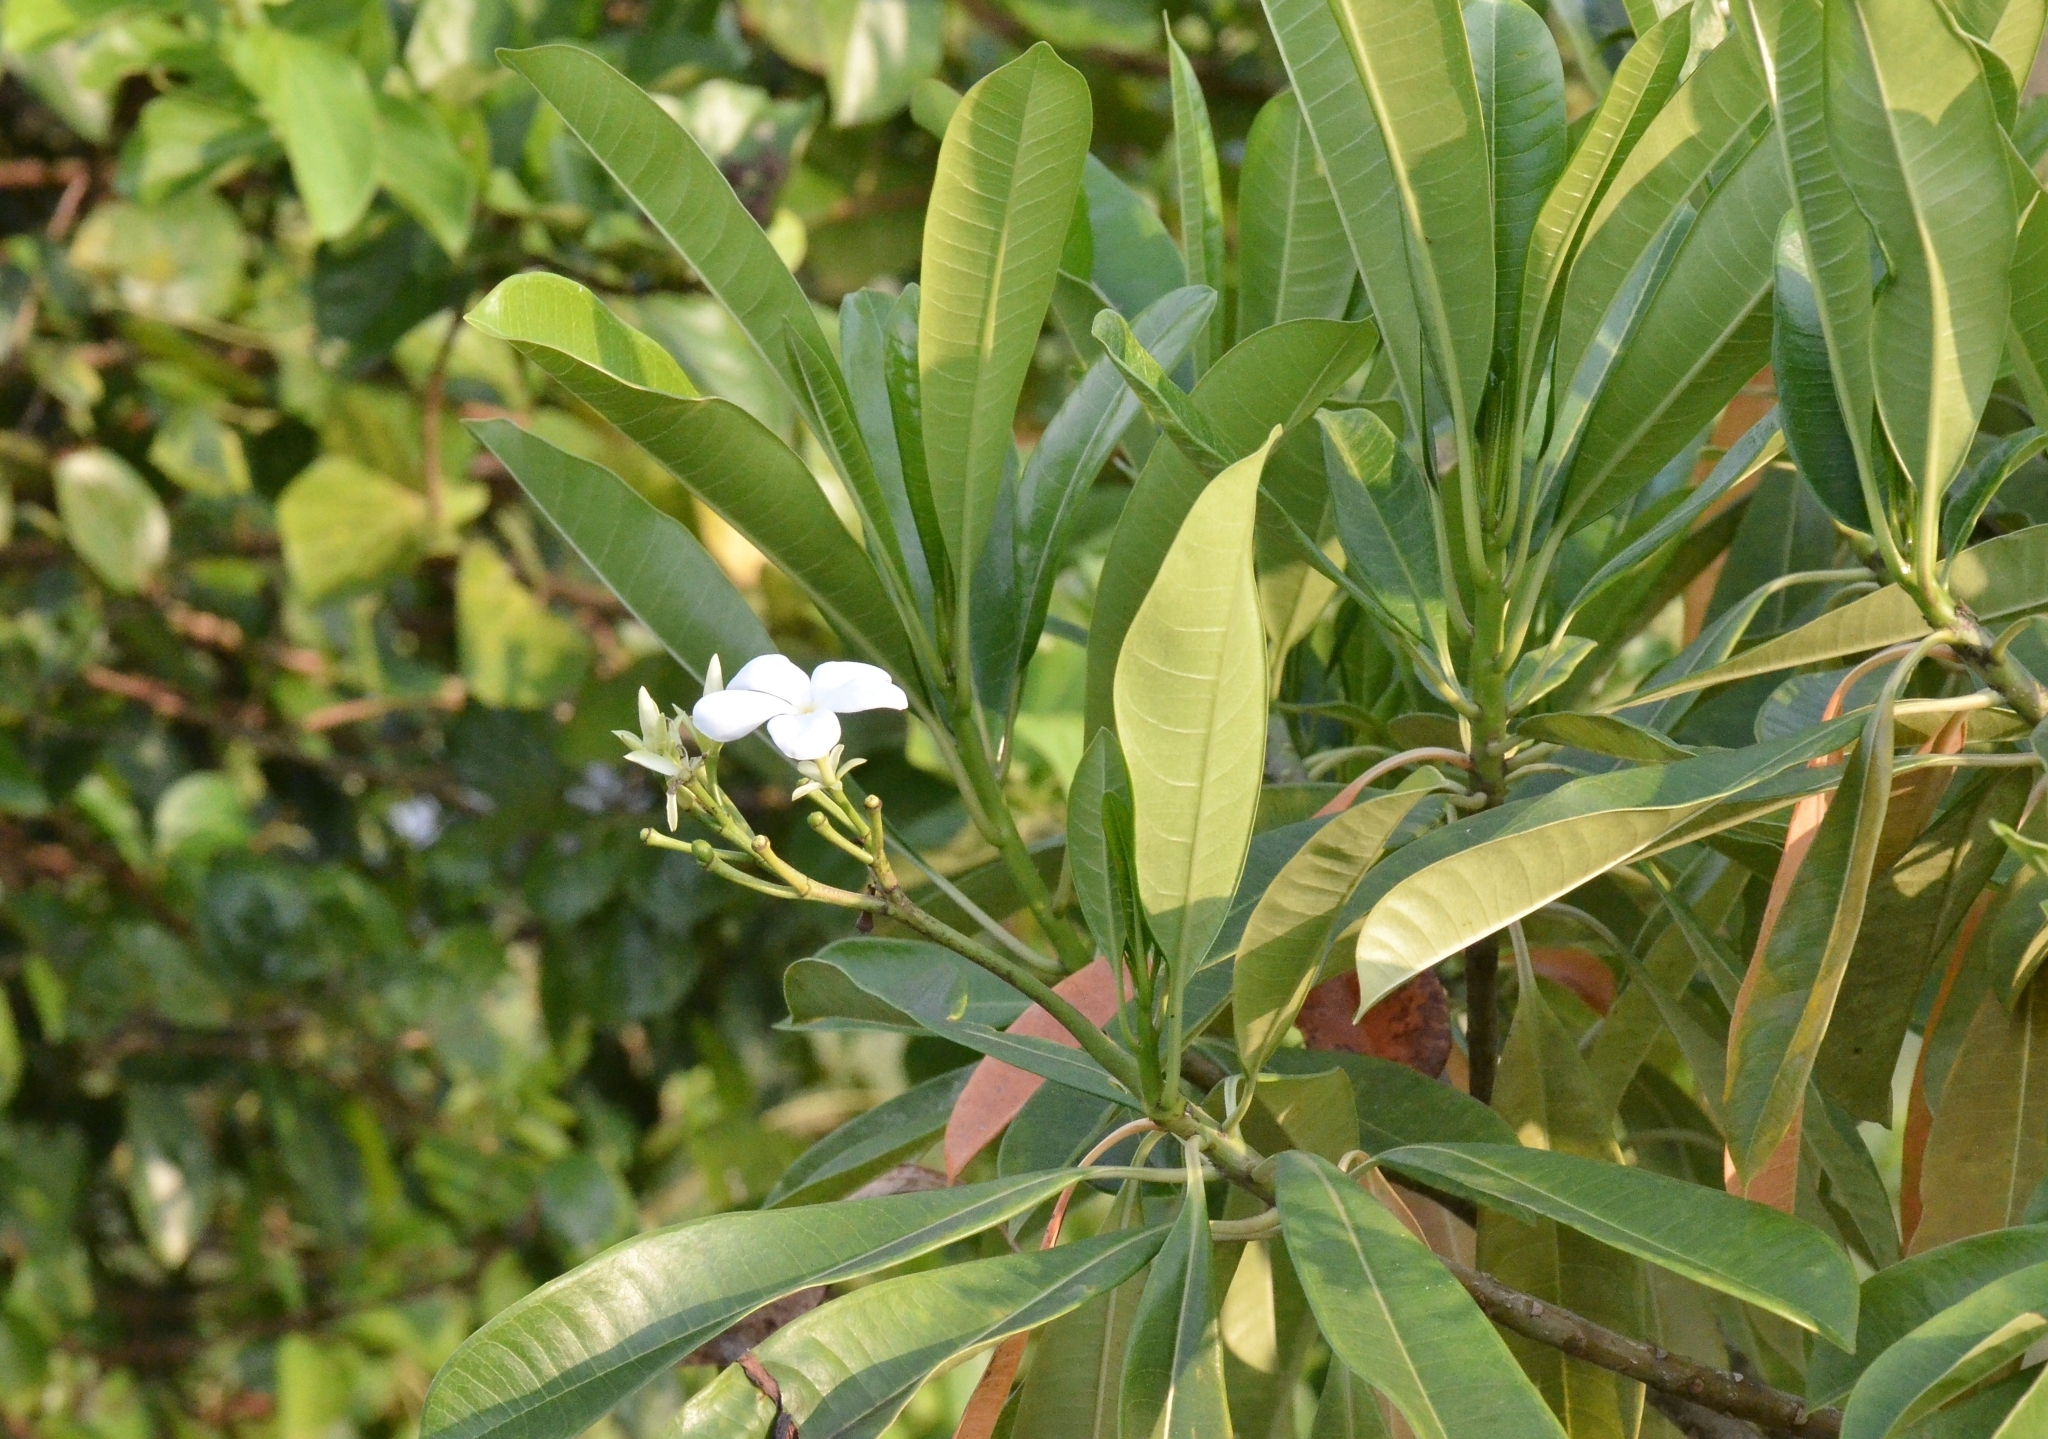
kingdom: Plantae
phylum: Tracheophyta
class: Magnoliopsida
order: Gentianales
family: Apocynaceae
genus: Cerbera
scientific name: Cerbera odollam
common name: Pong-pong
